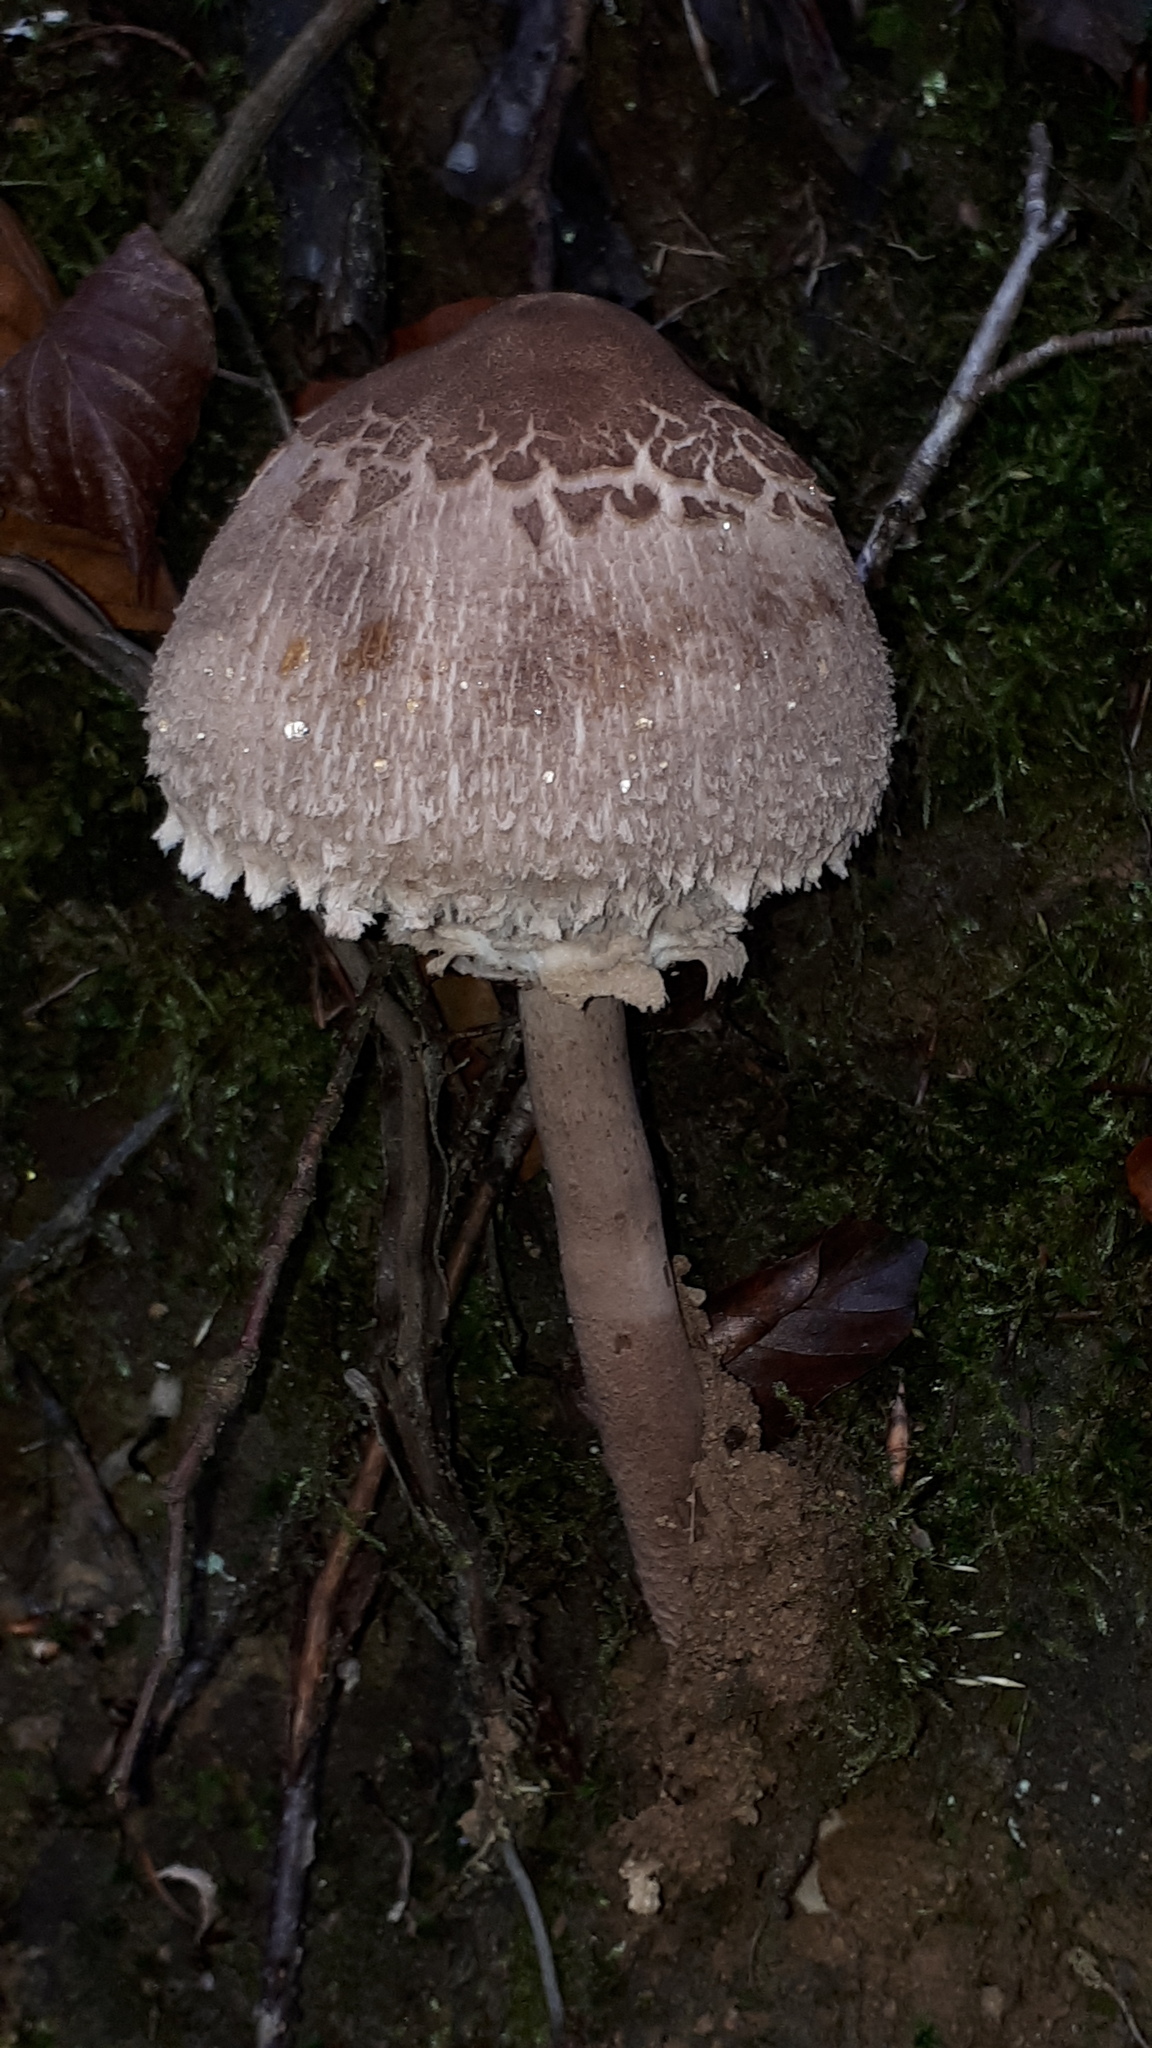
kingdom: Fungi
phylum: Basidiomycota
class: Agaricomycetes
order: Agaricales
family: Agaricaceae
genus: Macrolepiota
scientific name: Macrolepiota procera
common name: Parasol
